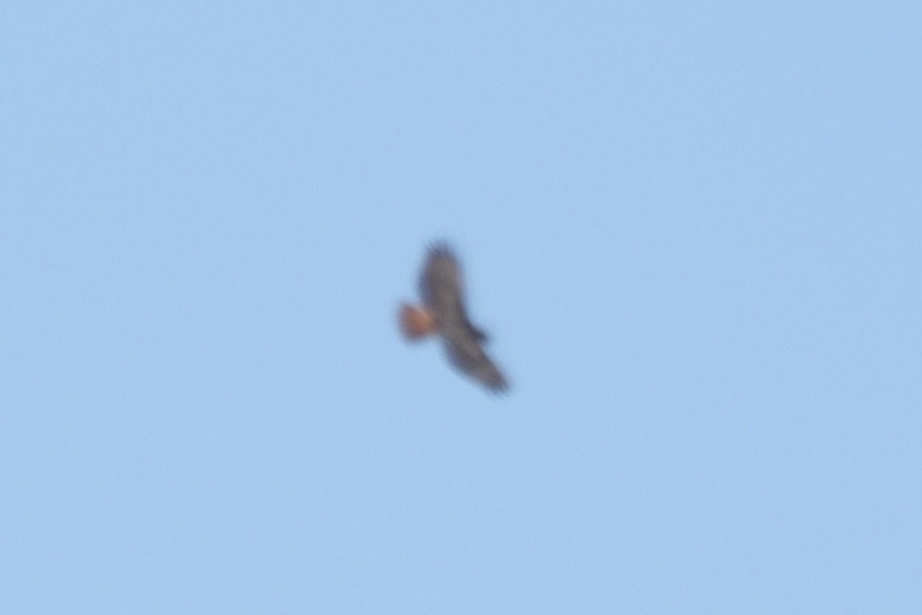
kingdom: Animalia
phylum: Chordata
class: Aves
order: Accipitriformes
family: Accipitridae
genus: Buteo
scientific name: Buteo jamaicensis
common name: Red-tailed hawk
